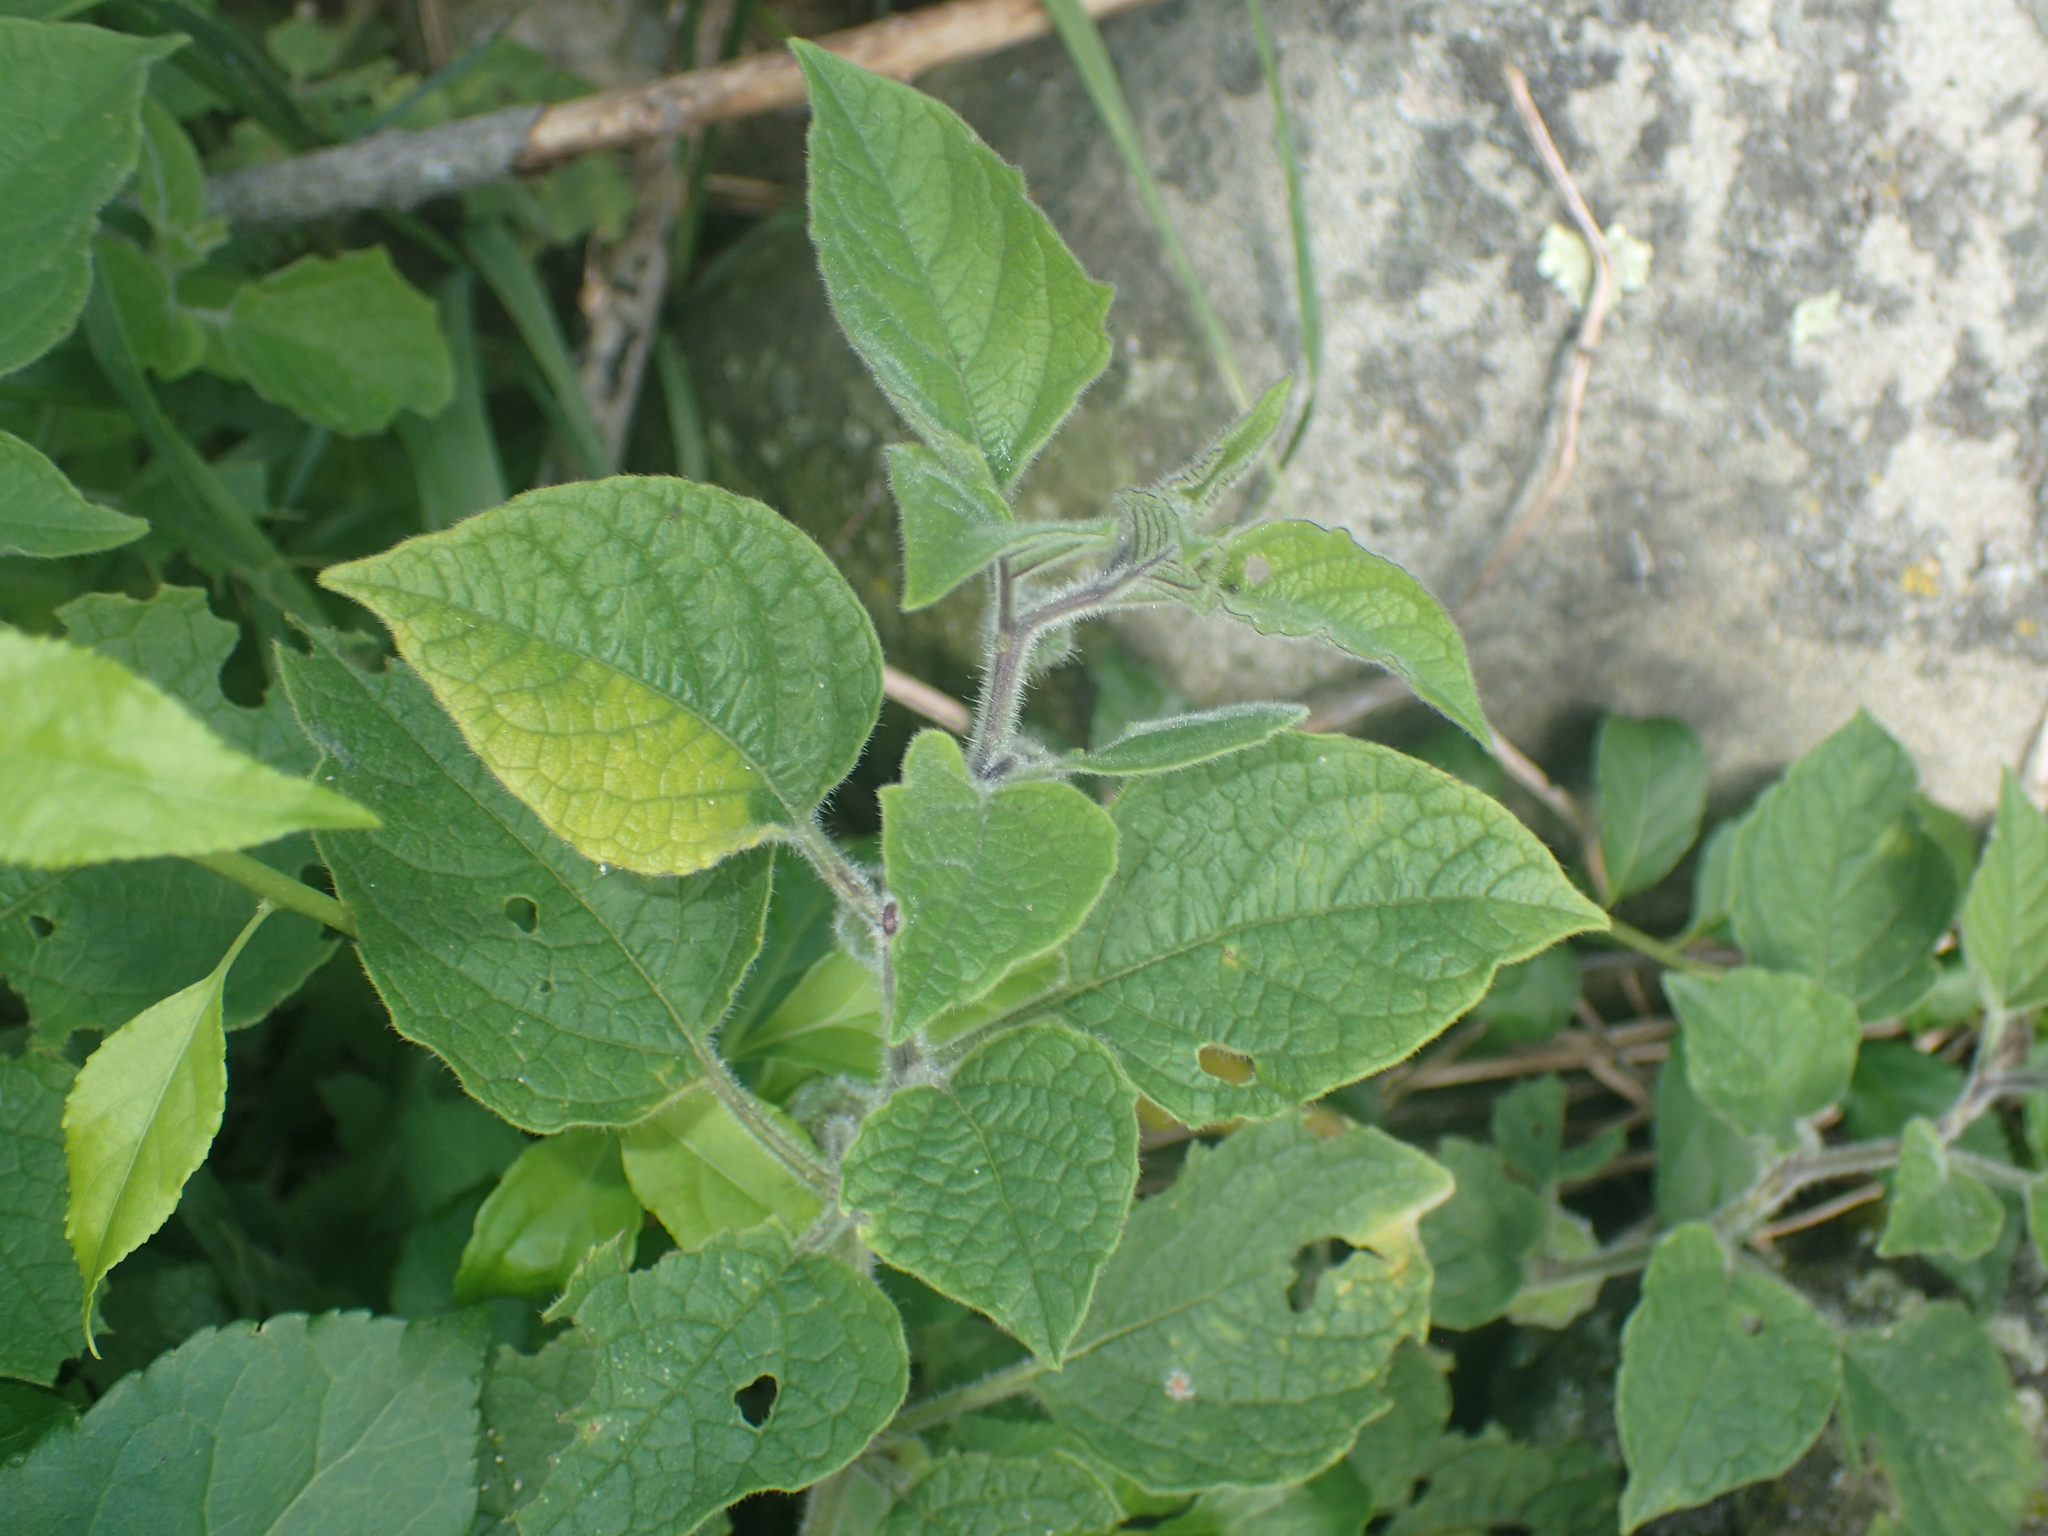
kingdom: Plantae
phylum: Tracheophyta
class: Magnoliopsida
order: Solanales
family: Solanaceae
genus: Physalis
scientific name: Physalis heterophylla
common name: Clammy ground-cherry
